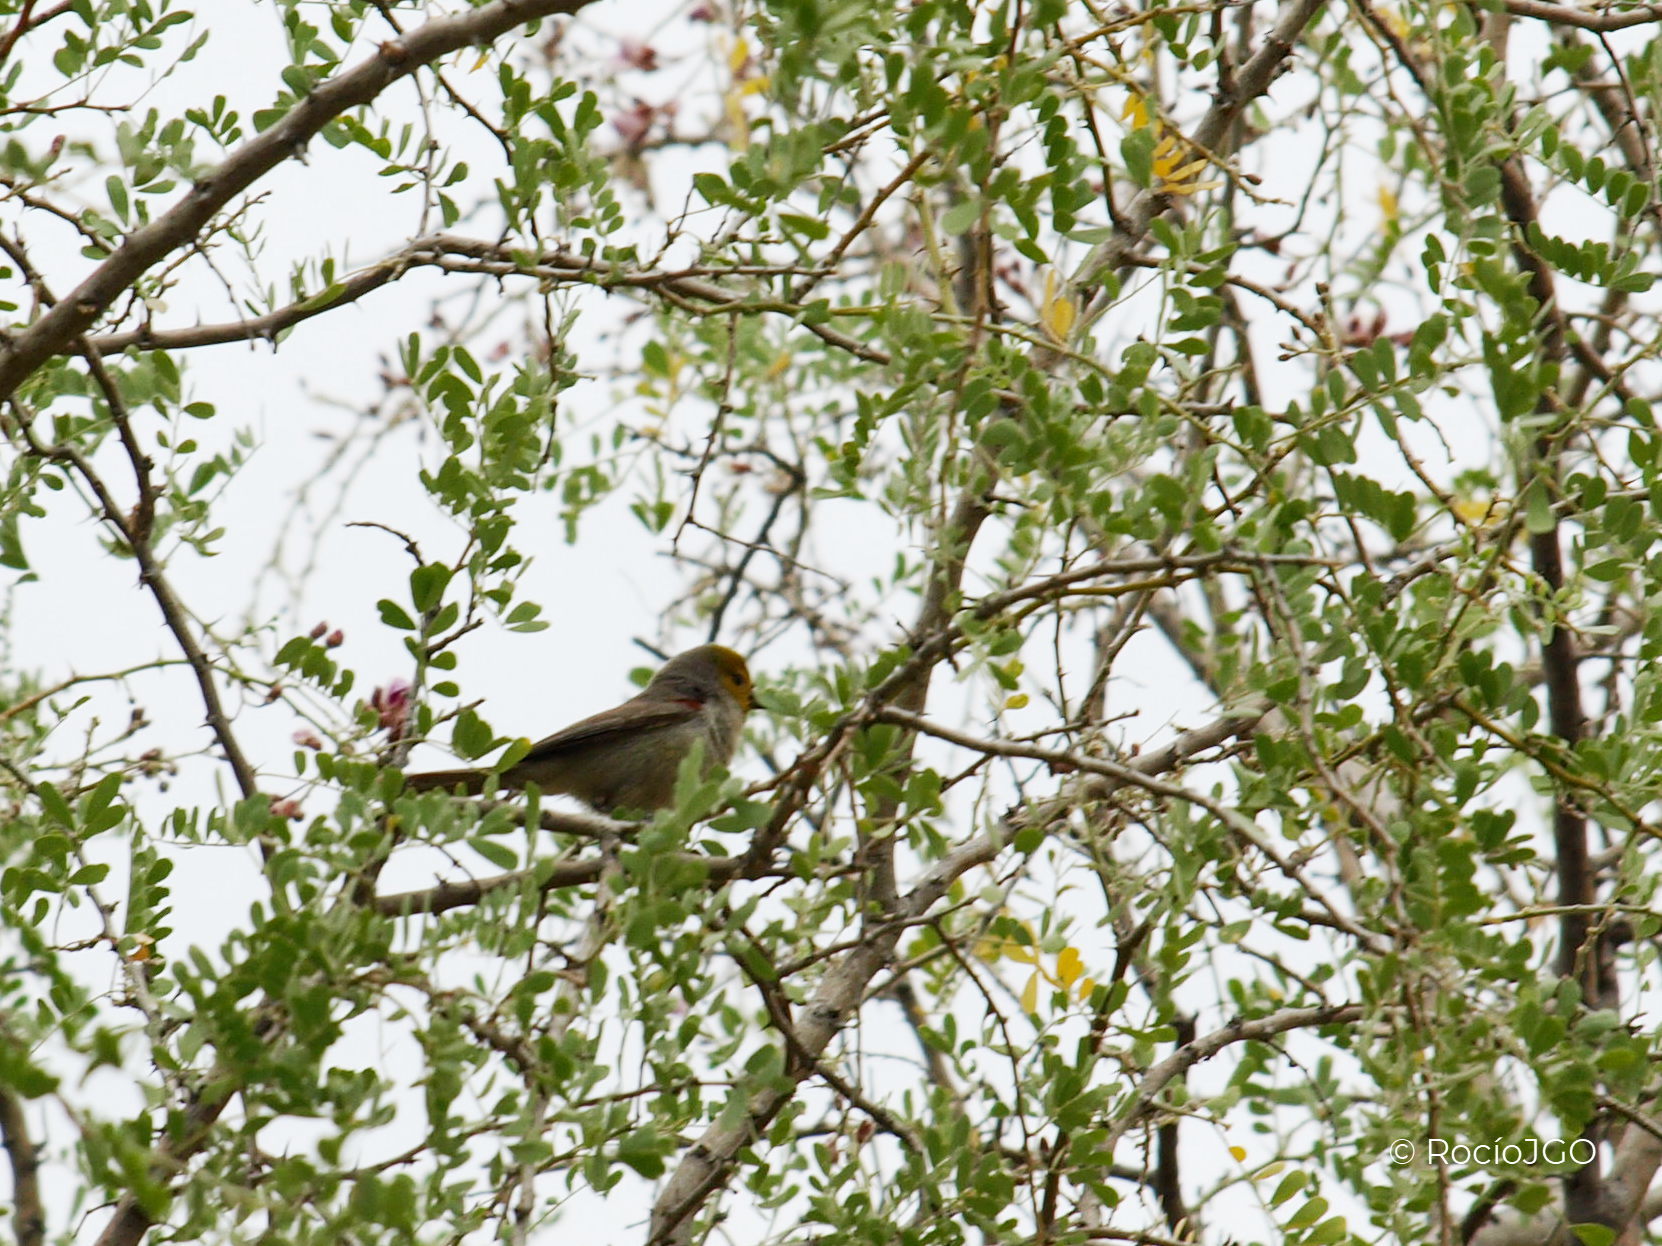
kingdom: Animalia
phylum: Chordata
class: Aves
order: Passeriformes
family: Remizidae
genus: Auriparus
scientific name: Auriparus flaviceps
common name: Verdin
